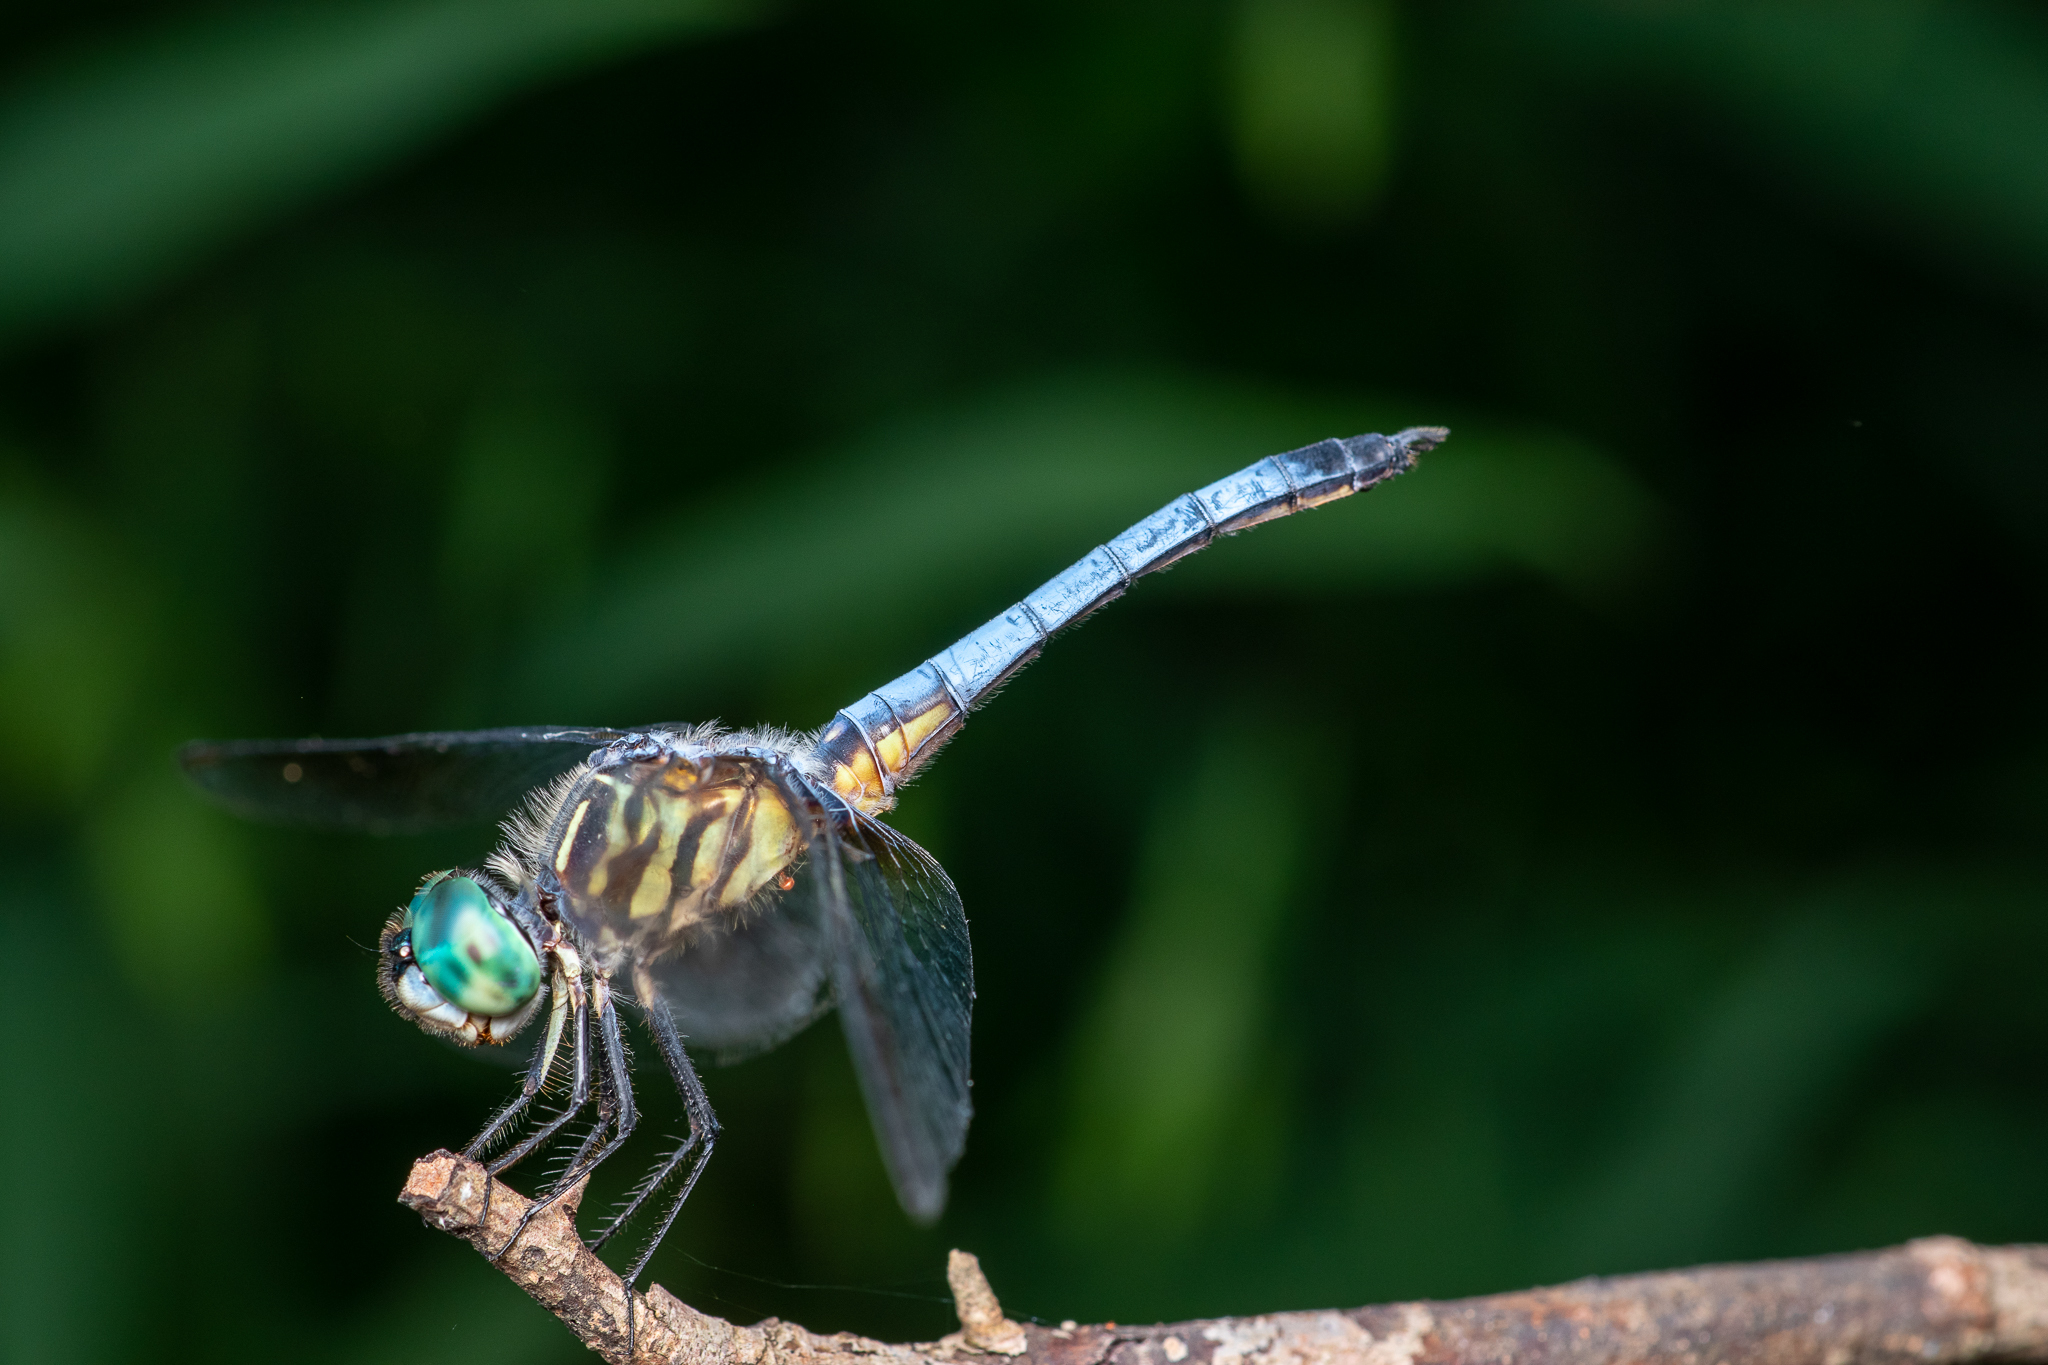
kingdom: Animalia
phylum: Arthropoda
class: Insecta
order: Odonata
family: Libellulidae
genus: Pachydiplax
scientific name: Pachydiplax longipennis
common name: Blue dasher
